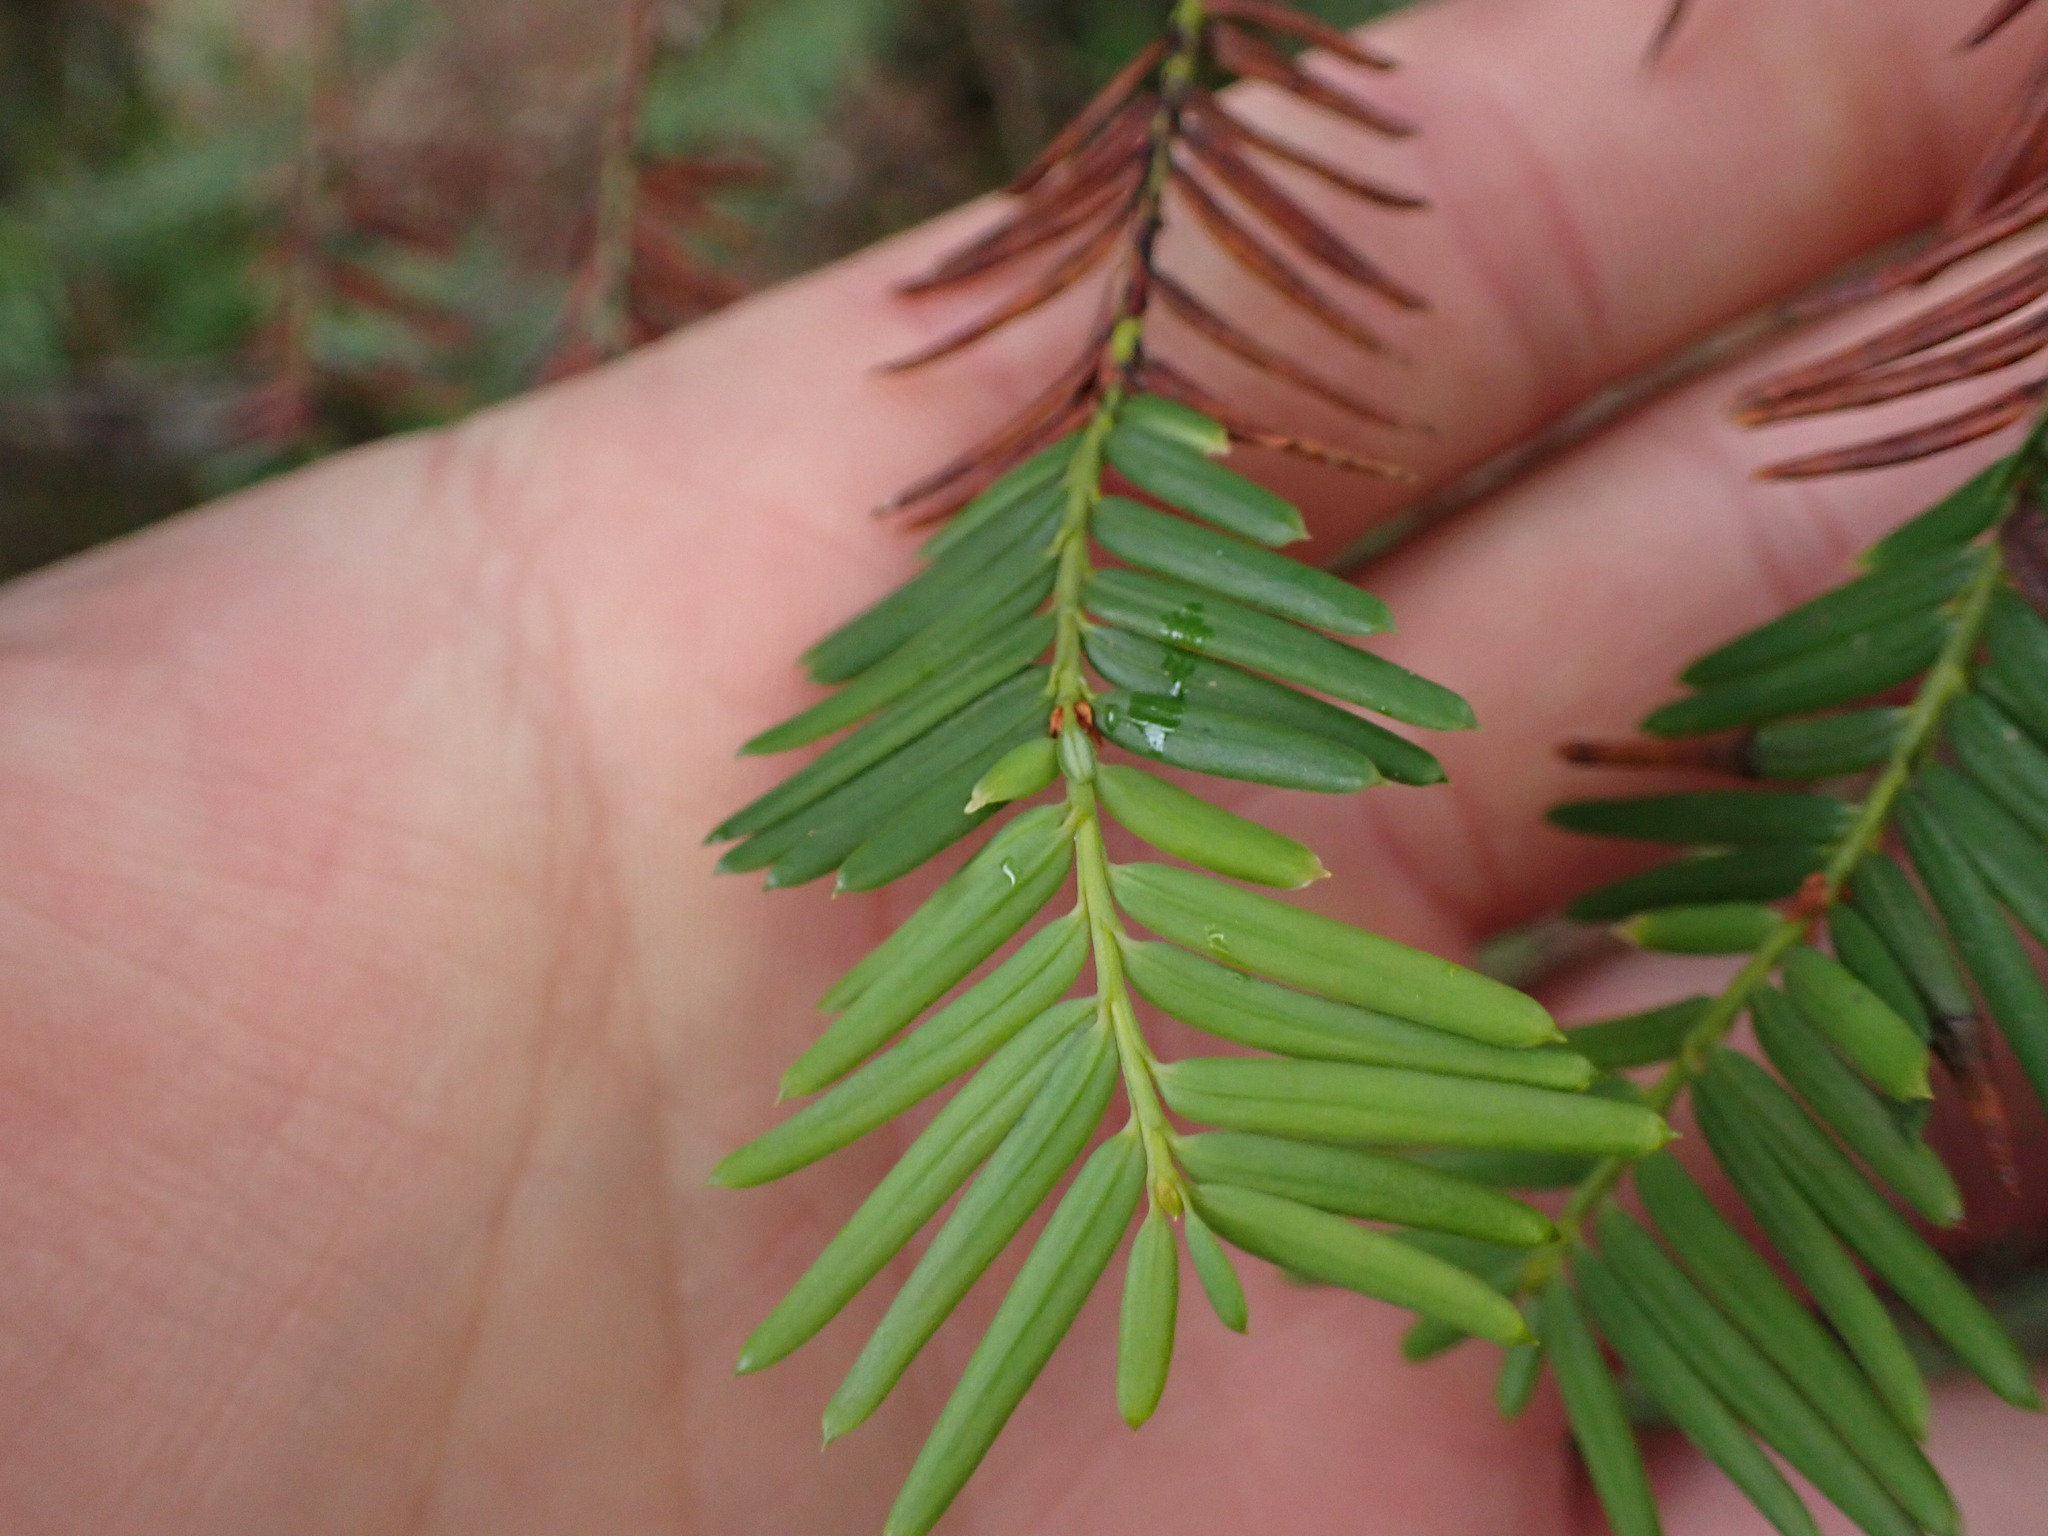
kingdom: Plantae
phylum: Tracheophyta
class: Pinopsida
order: Pinales
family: Taxaceae
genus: Taxus
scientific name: Taxus brevifolia
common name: Pacific yew
